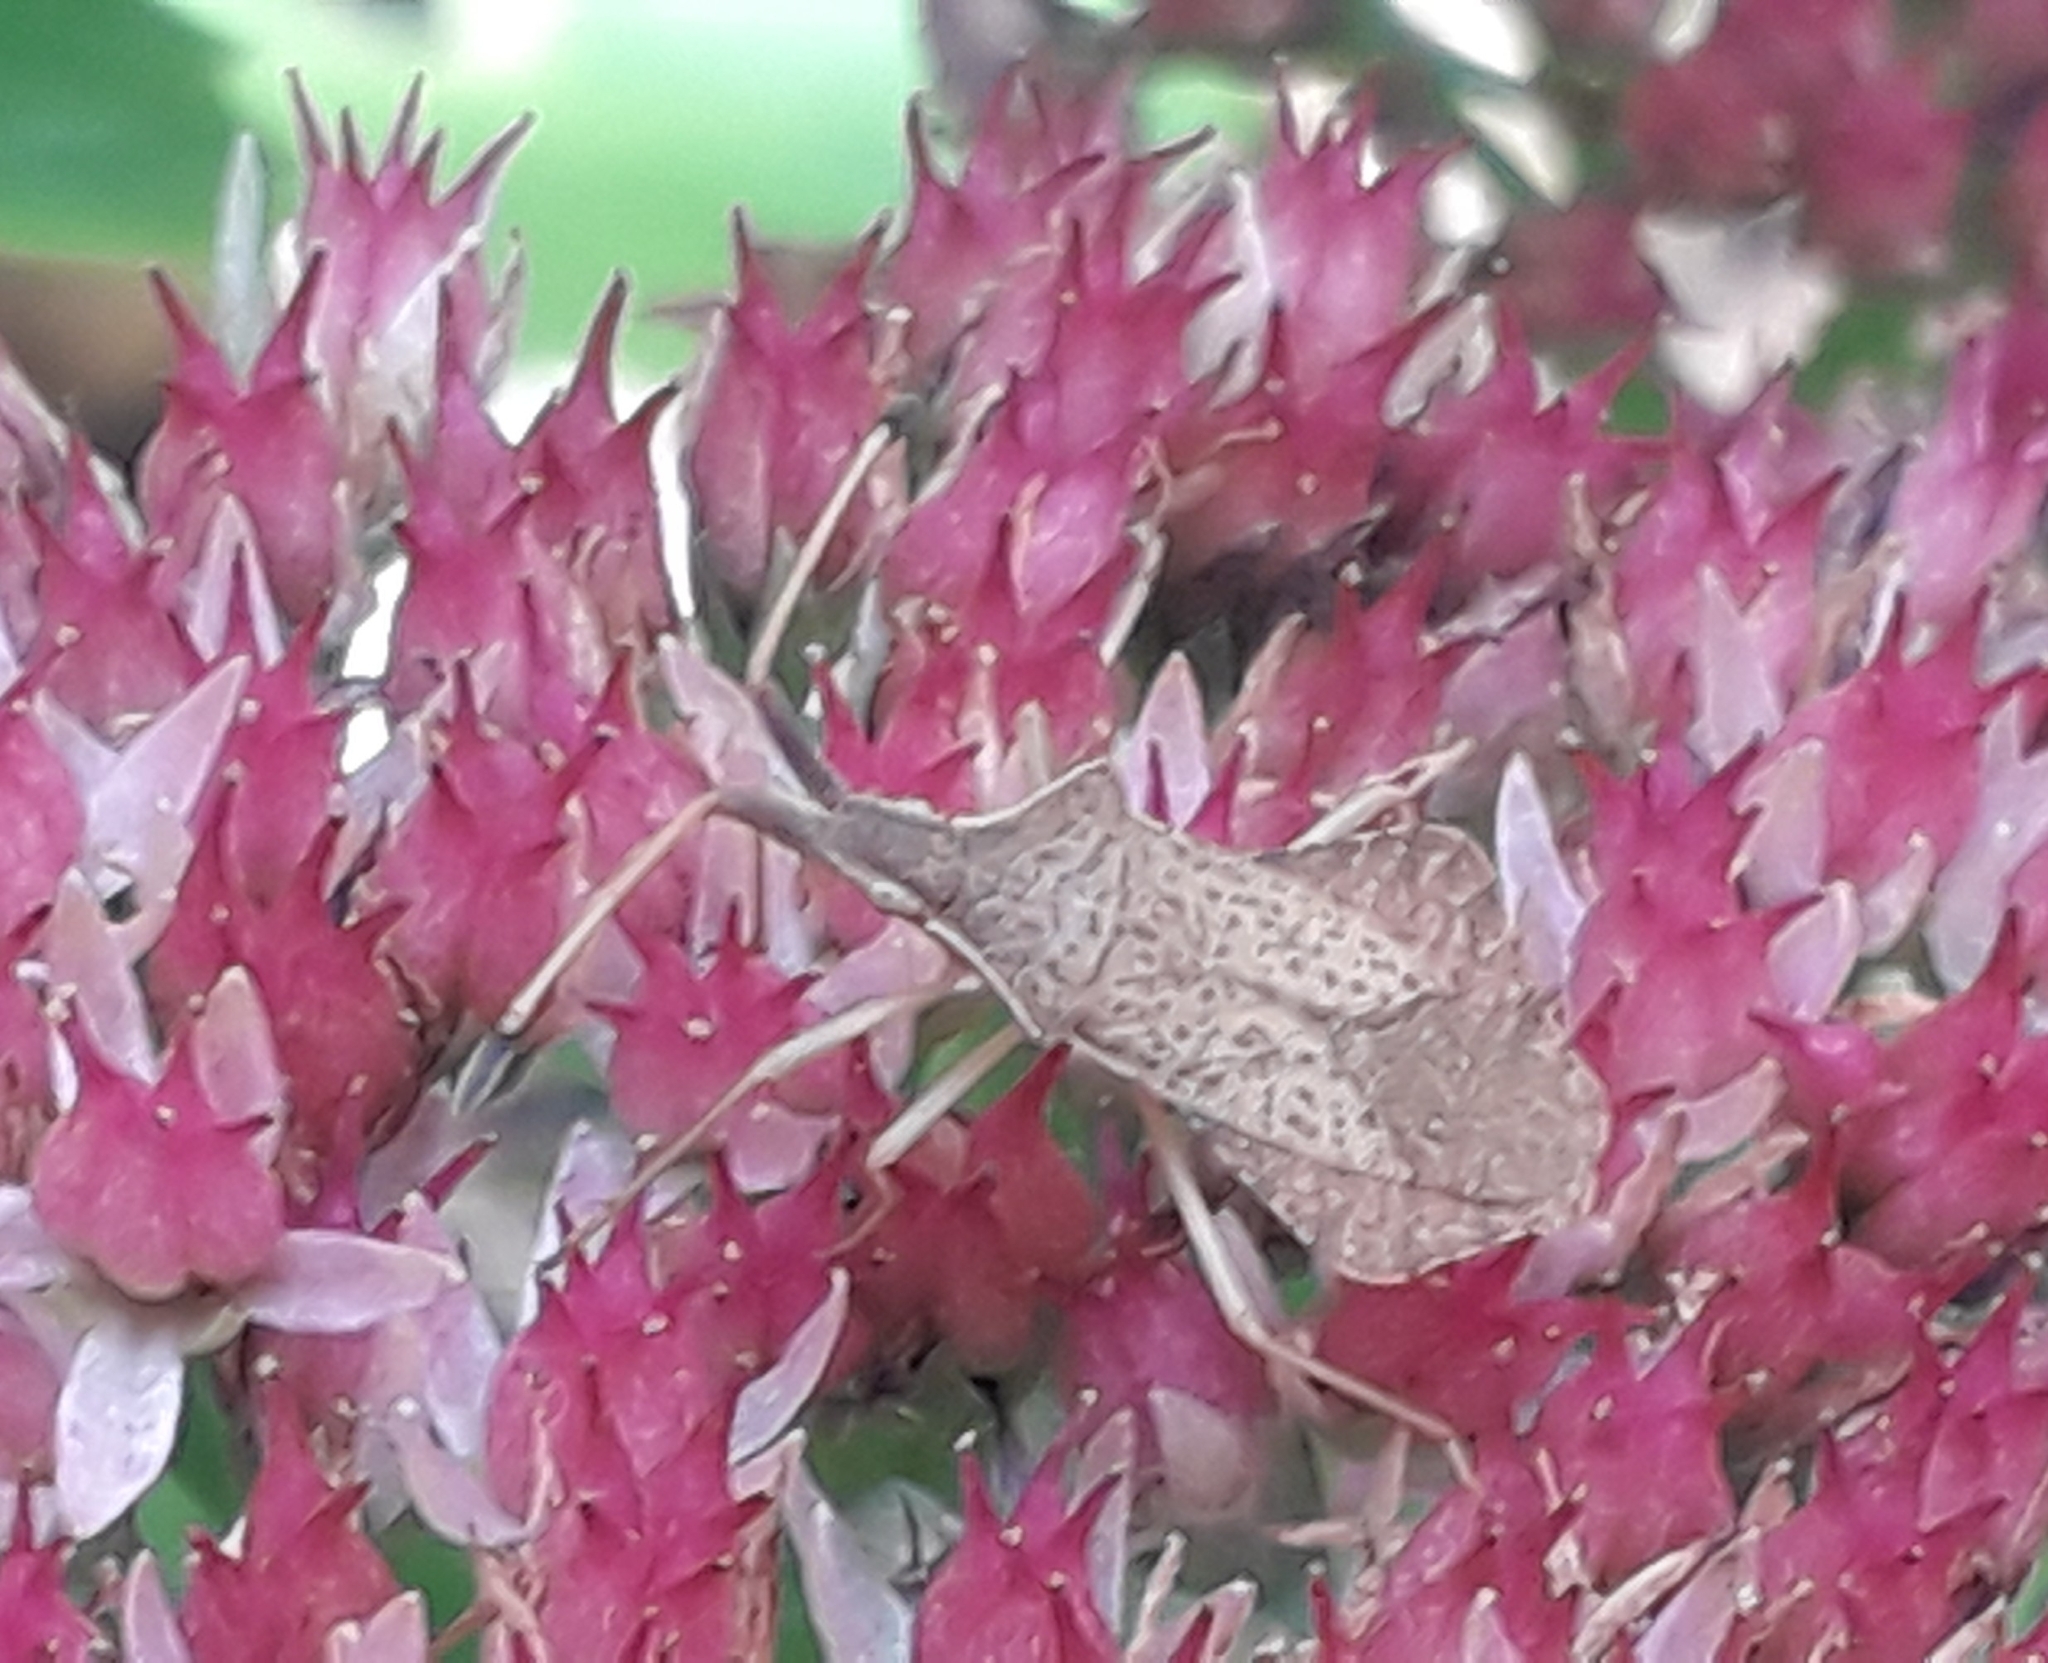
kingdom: Animalia
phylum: Arthropoda
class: Insecta
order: Hemiptera
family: Coreidae
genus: Syromastus
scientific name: Syromastus rhombeus
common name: Rhombic leatherbug
